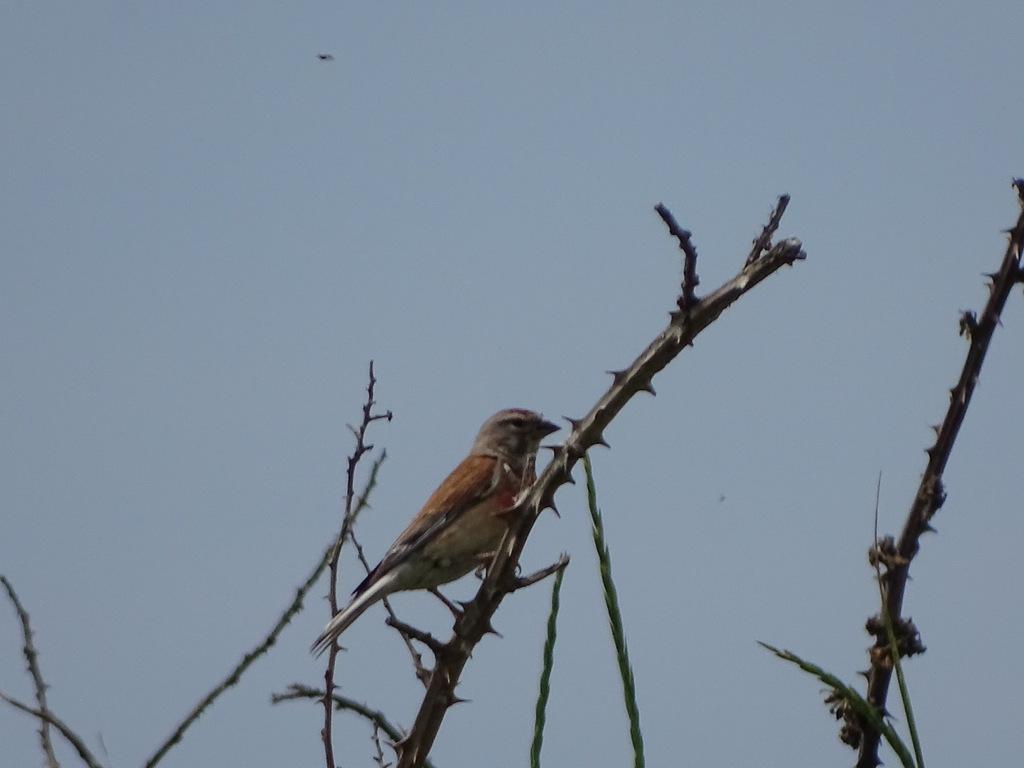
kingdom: Animalia
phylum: Chordata
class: Aves
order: Passeriformes
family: Fringillidae
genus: Linaria
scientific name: Linaria cannabina
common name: Common linnet
